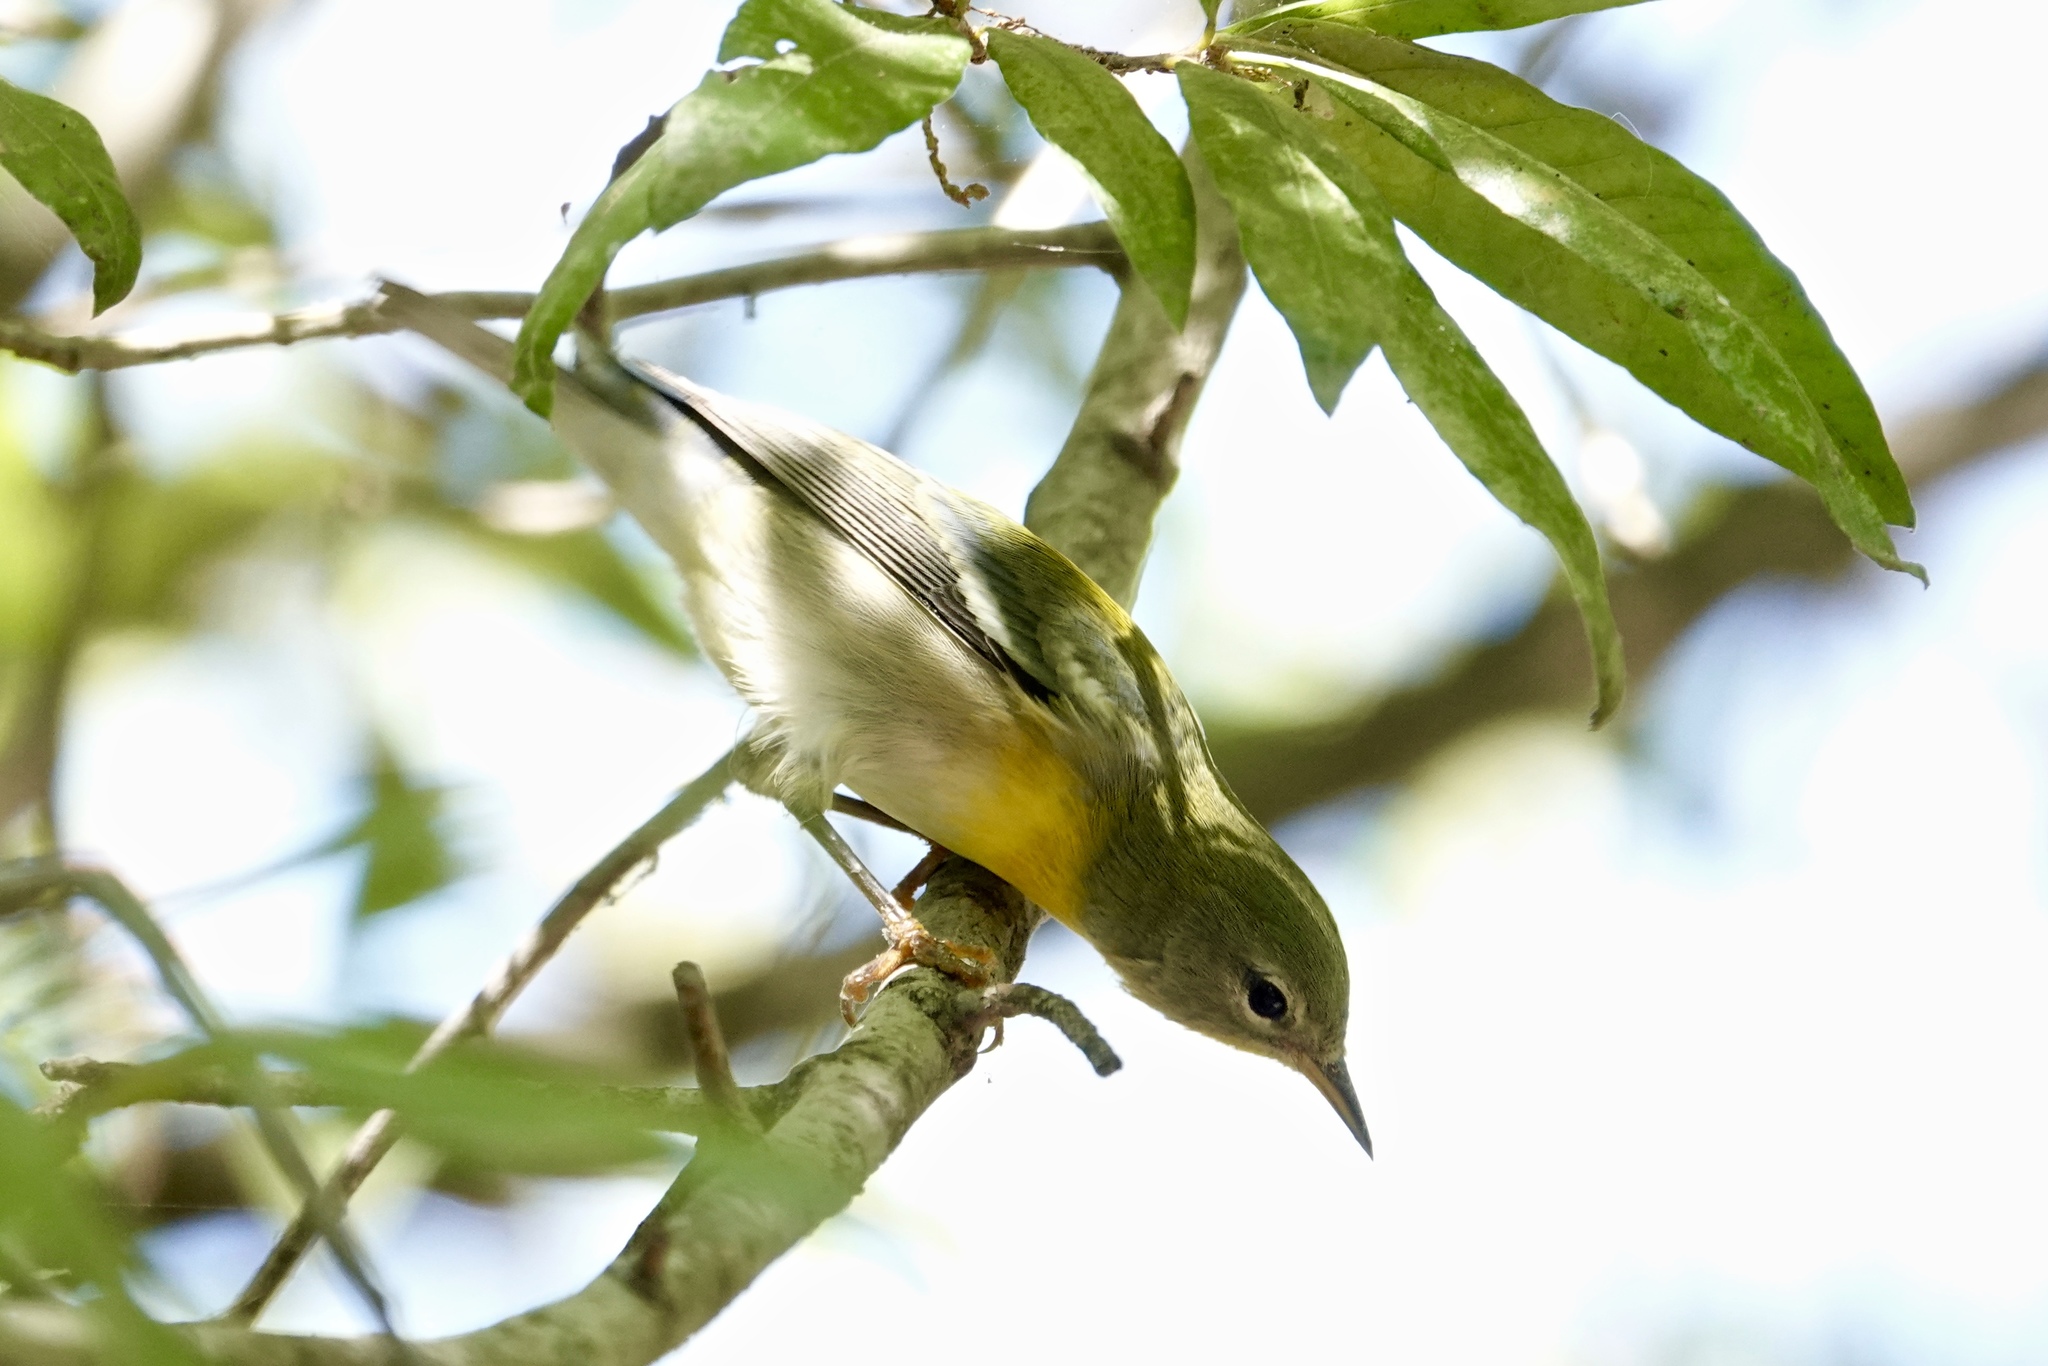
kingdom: Animalia
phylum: Chordata
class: Aves
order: Passeriformes
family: Parulidae
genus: Setophaga
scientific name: Setophaga americana
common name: Northern parula
